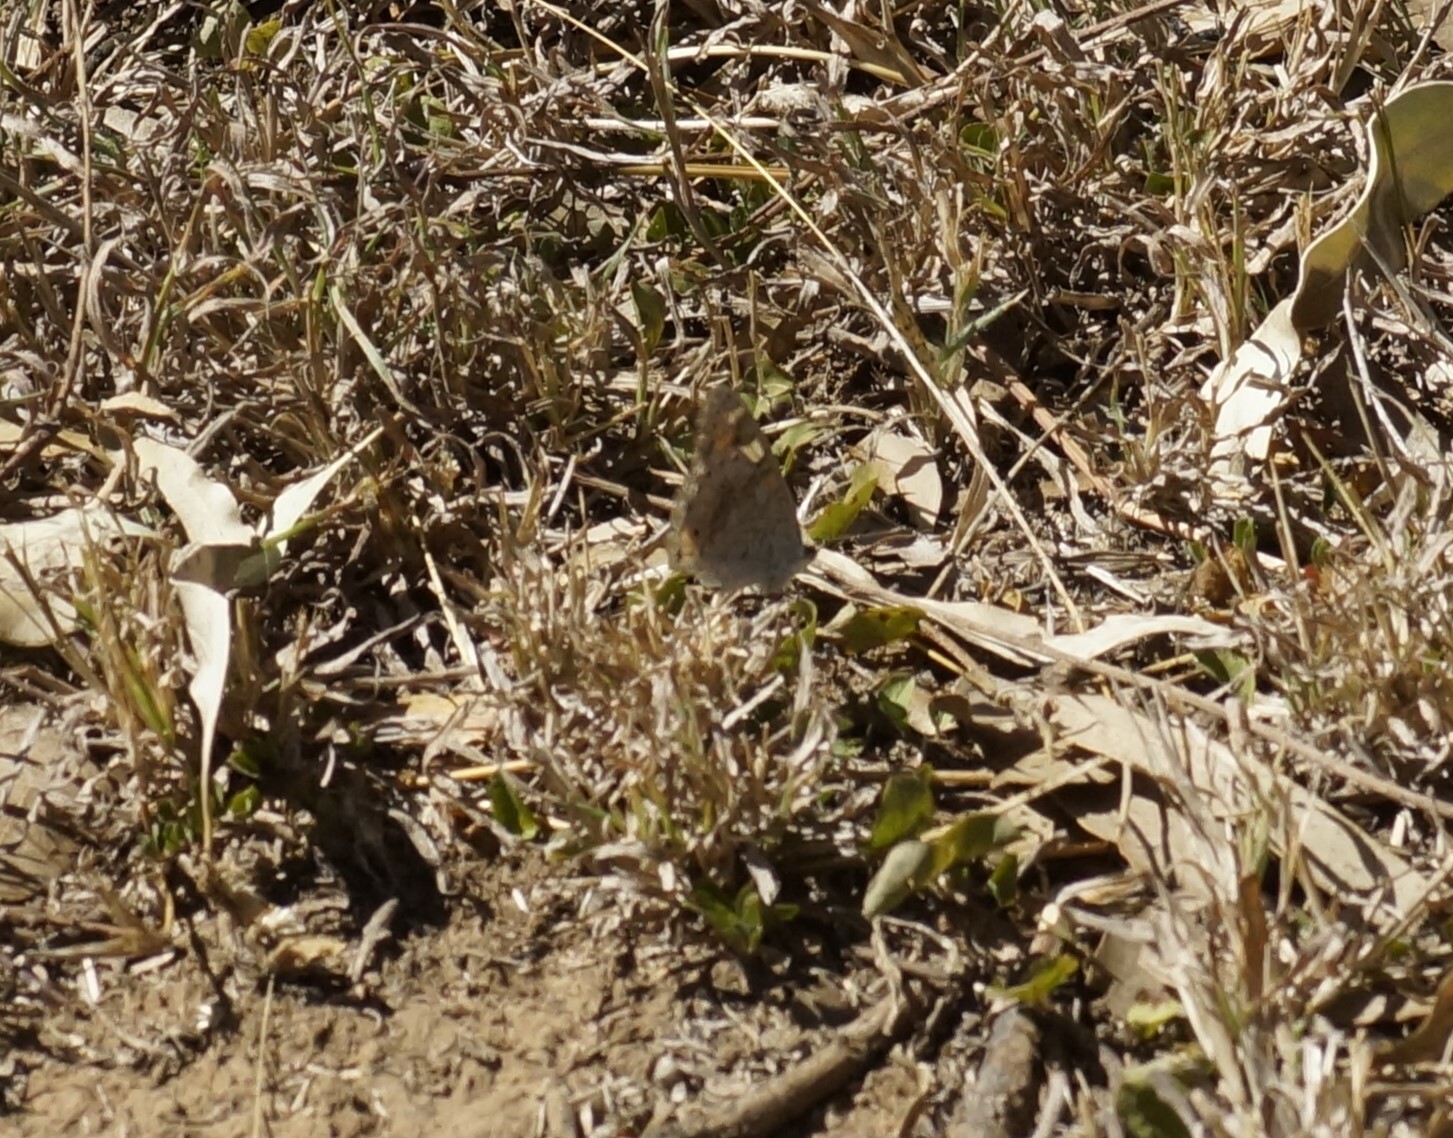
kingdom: Animalia
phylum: Arthropoda
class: Insecta
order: Lepidoptera
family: Nymphalidae
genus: Junonia
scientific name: Junonia orithya
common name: Blue pansy
